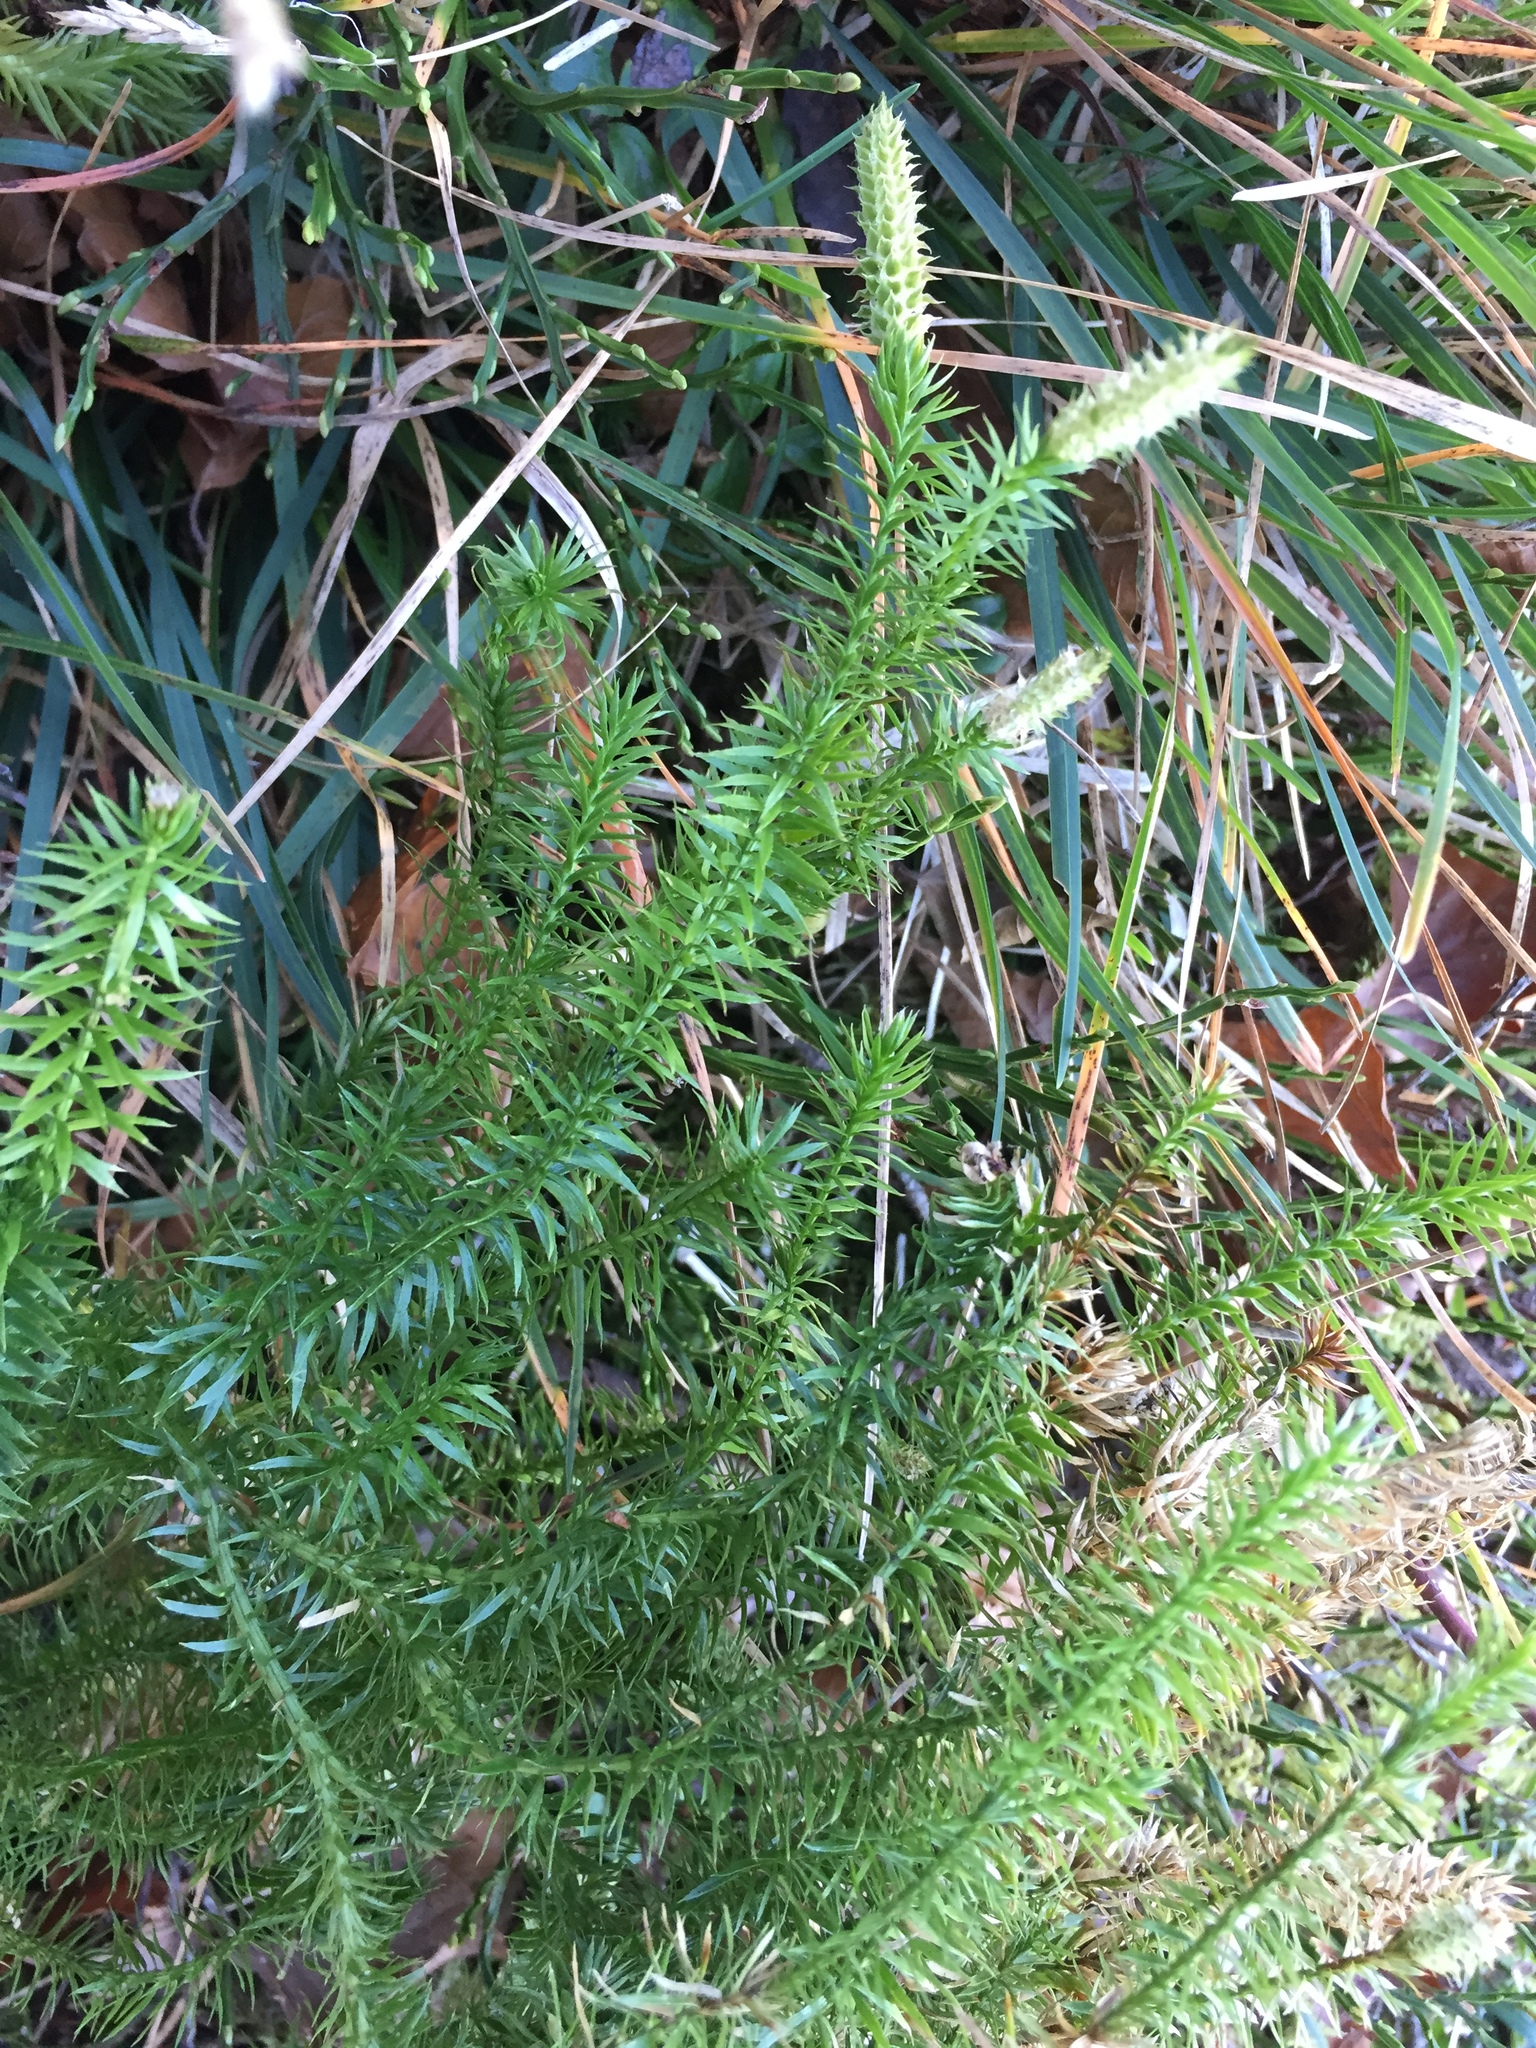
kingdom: Plantae
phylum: Tracheophyta
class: Lycopodiopsida
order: Lycopodiales
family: Lycopodiaceae
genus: Spinulum
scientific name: Spinulum annotinum
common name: Interrupted club-moss
